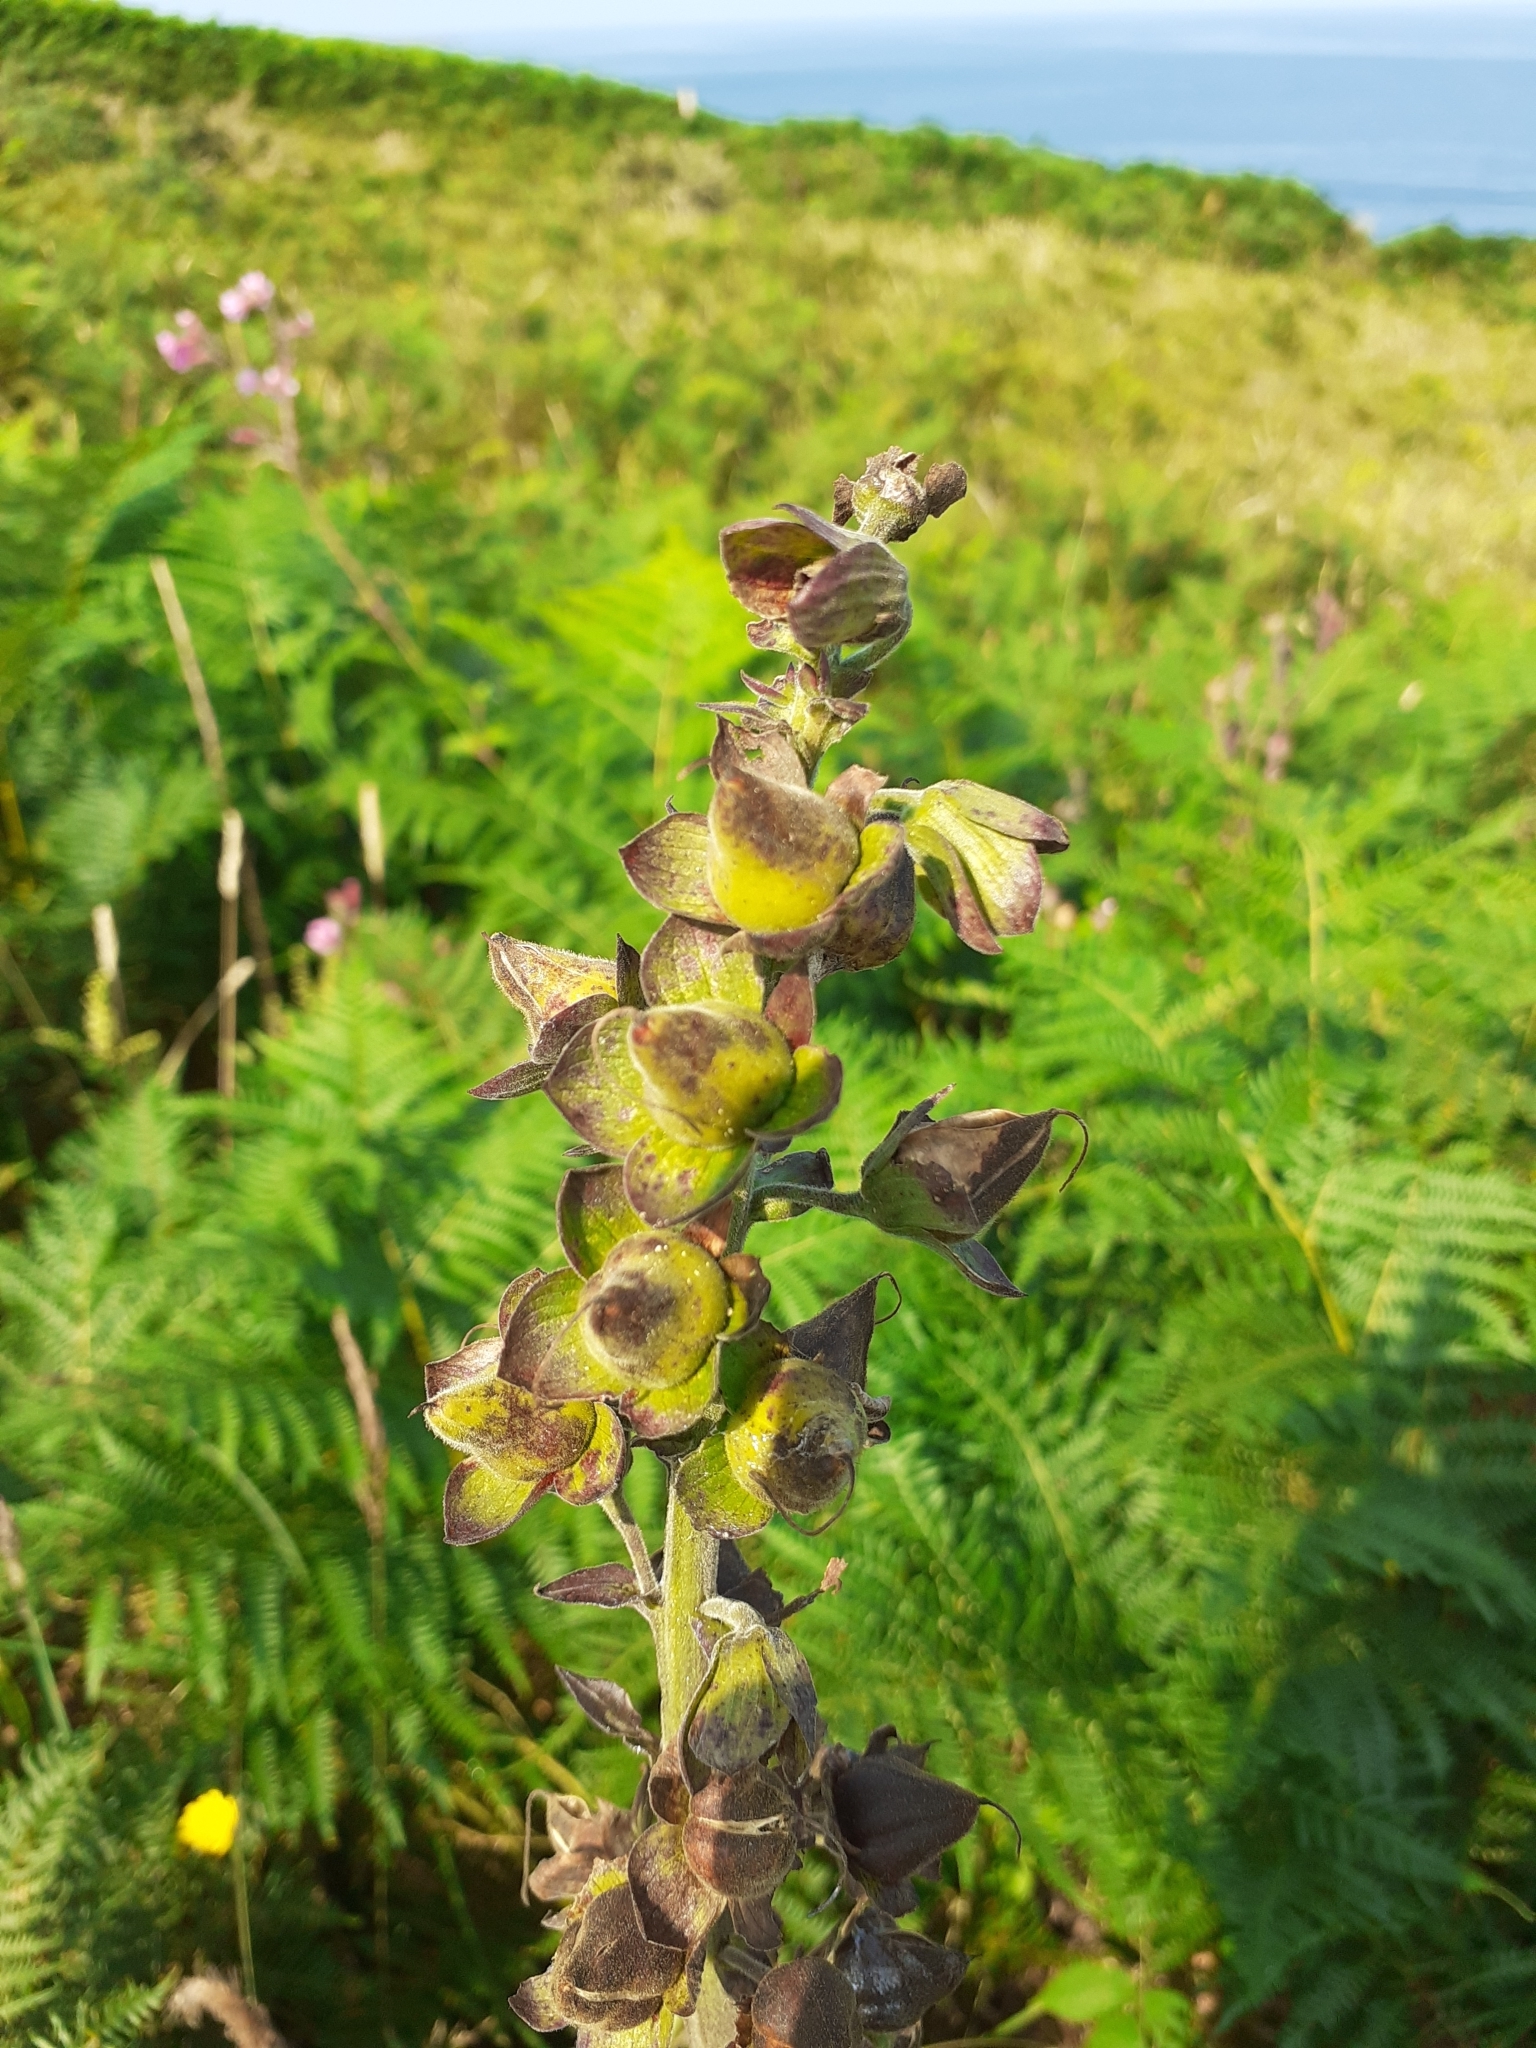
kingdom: Plantae
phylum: Tracheophyta
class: Magnoliopsida
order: Lamiales
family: Plantaginaceae
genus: Digitalis
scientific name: Digitalis purpurea
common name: Foxglove
